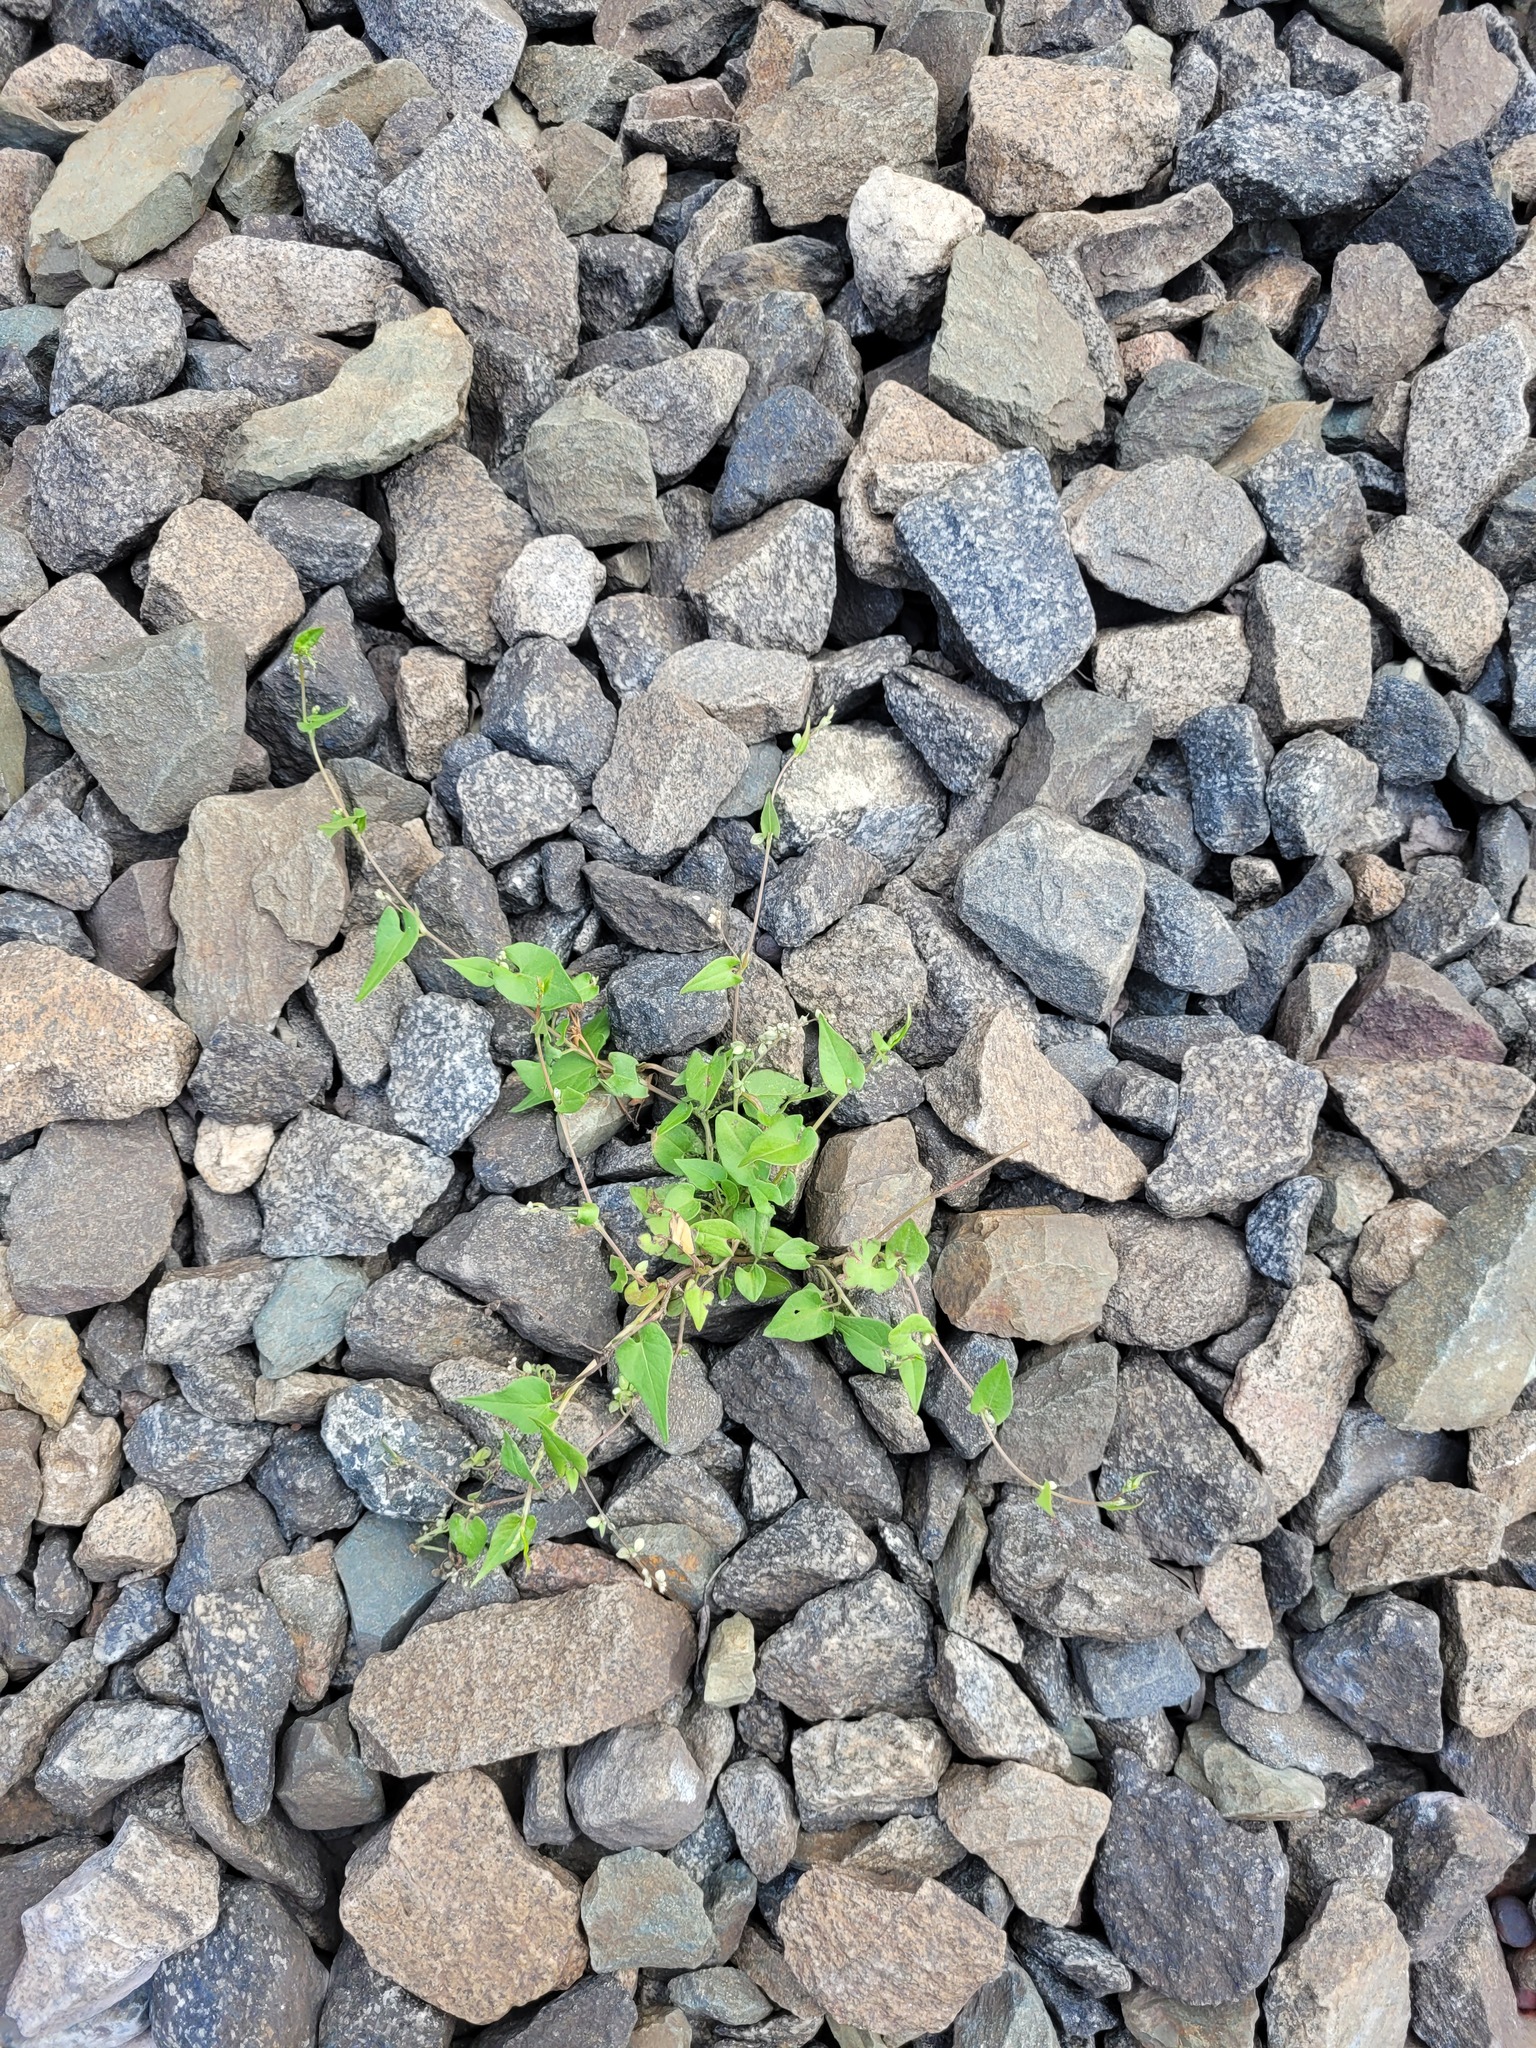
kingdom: Plantae
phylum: Tracheophyta
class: Magnoliopsida
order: Caryophyllales
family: Polygonaceae
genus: Fallopia
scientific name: Fallopia convolvulus
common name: Black bindweed
